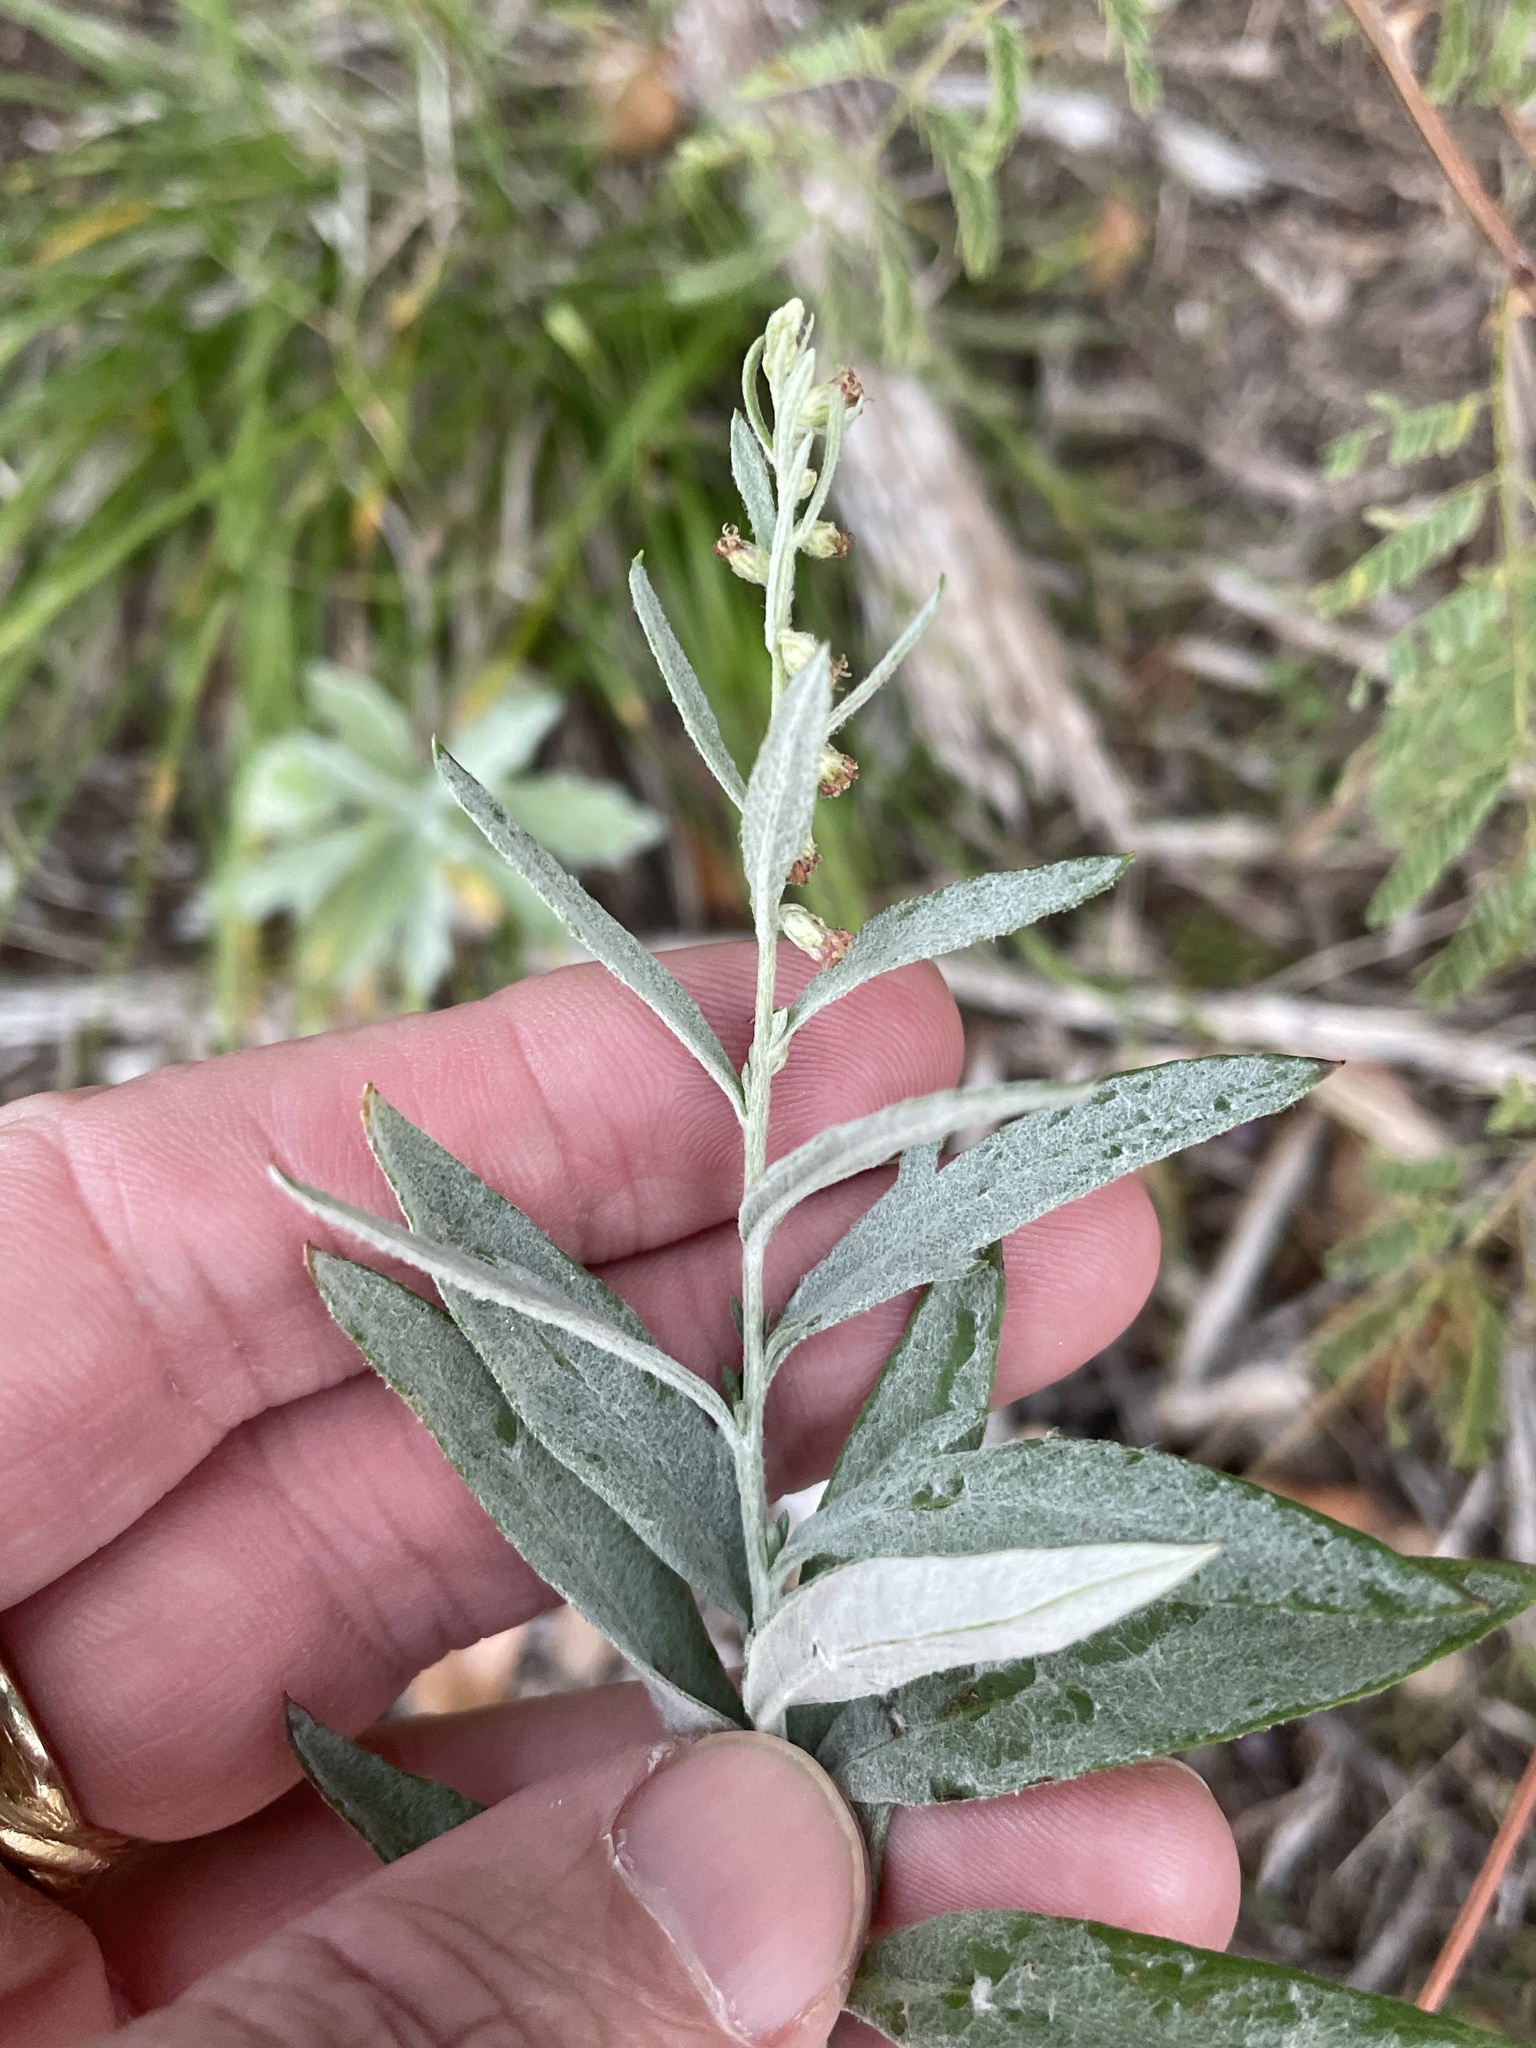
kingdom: Plantae
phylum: Tracheophyta
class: Magnoliopsida
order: Asterales
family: Asteraceae
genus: Artemisia
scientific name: Artemisia ludoviciana
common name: Western mugwort
